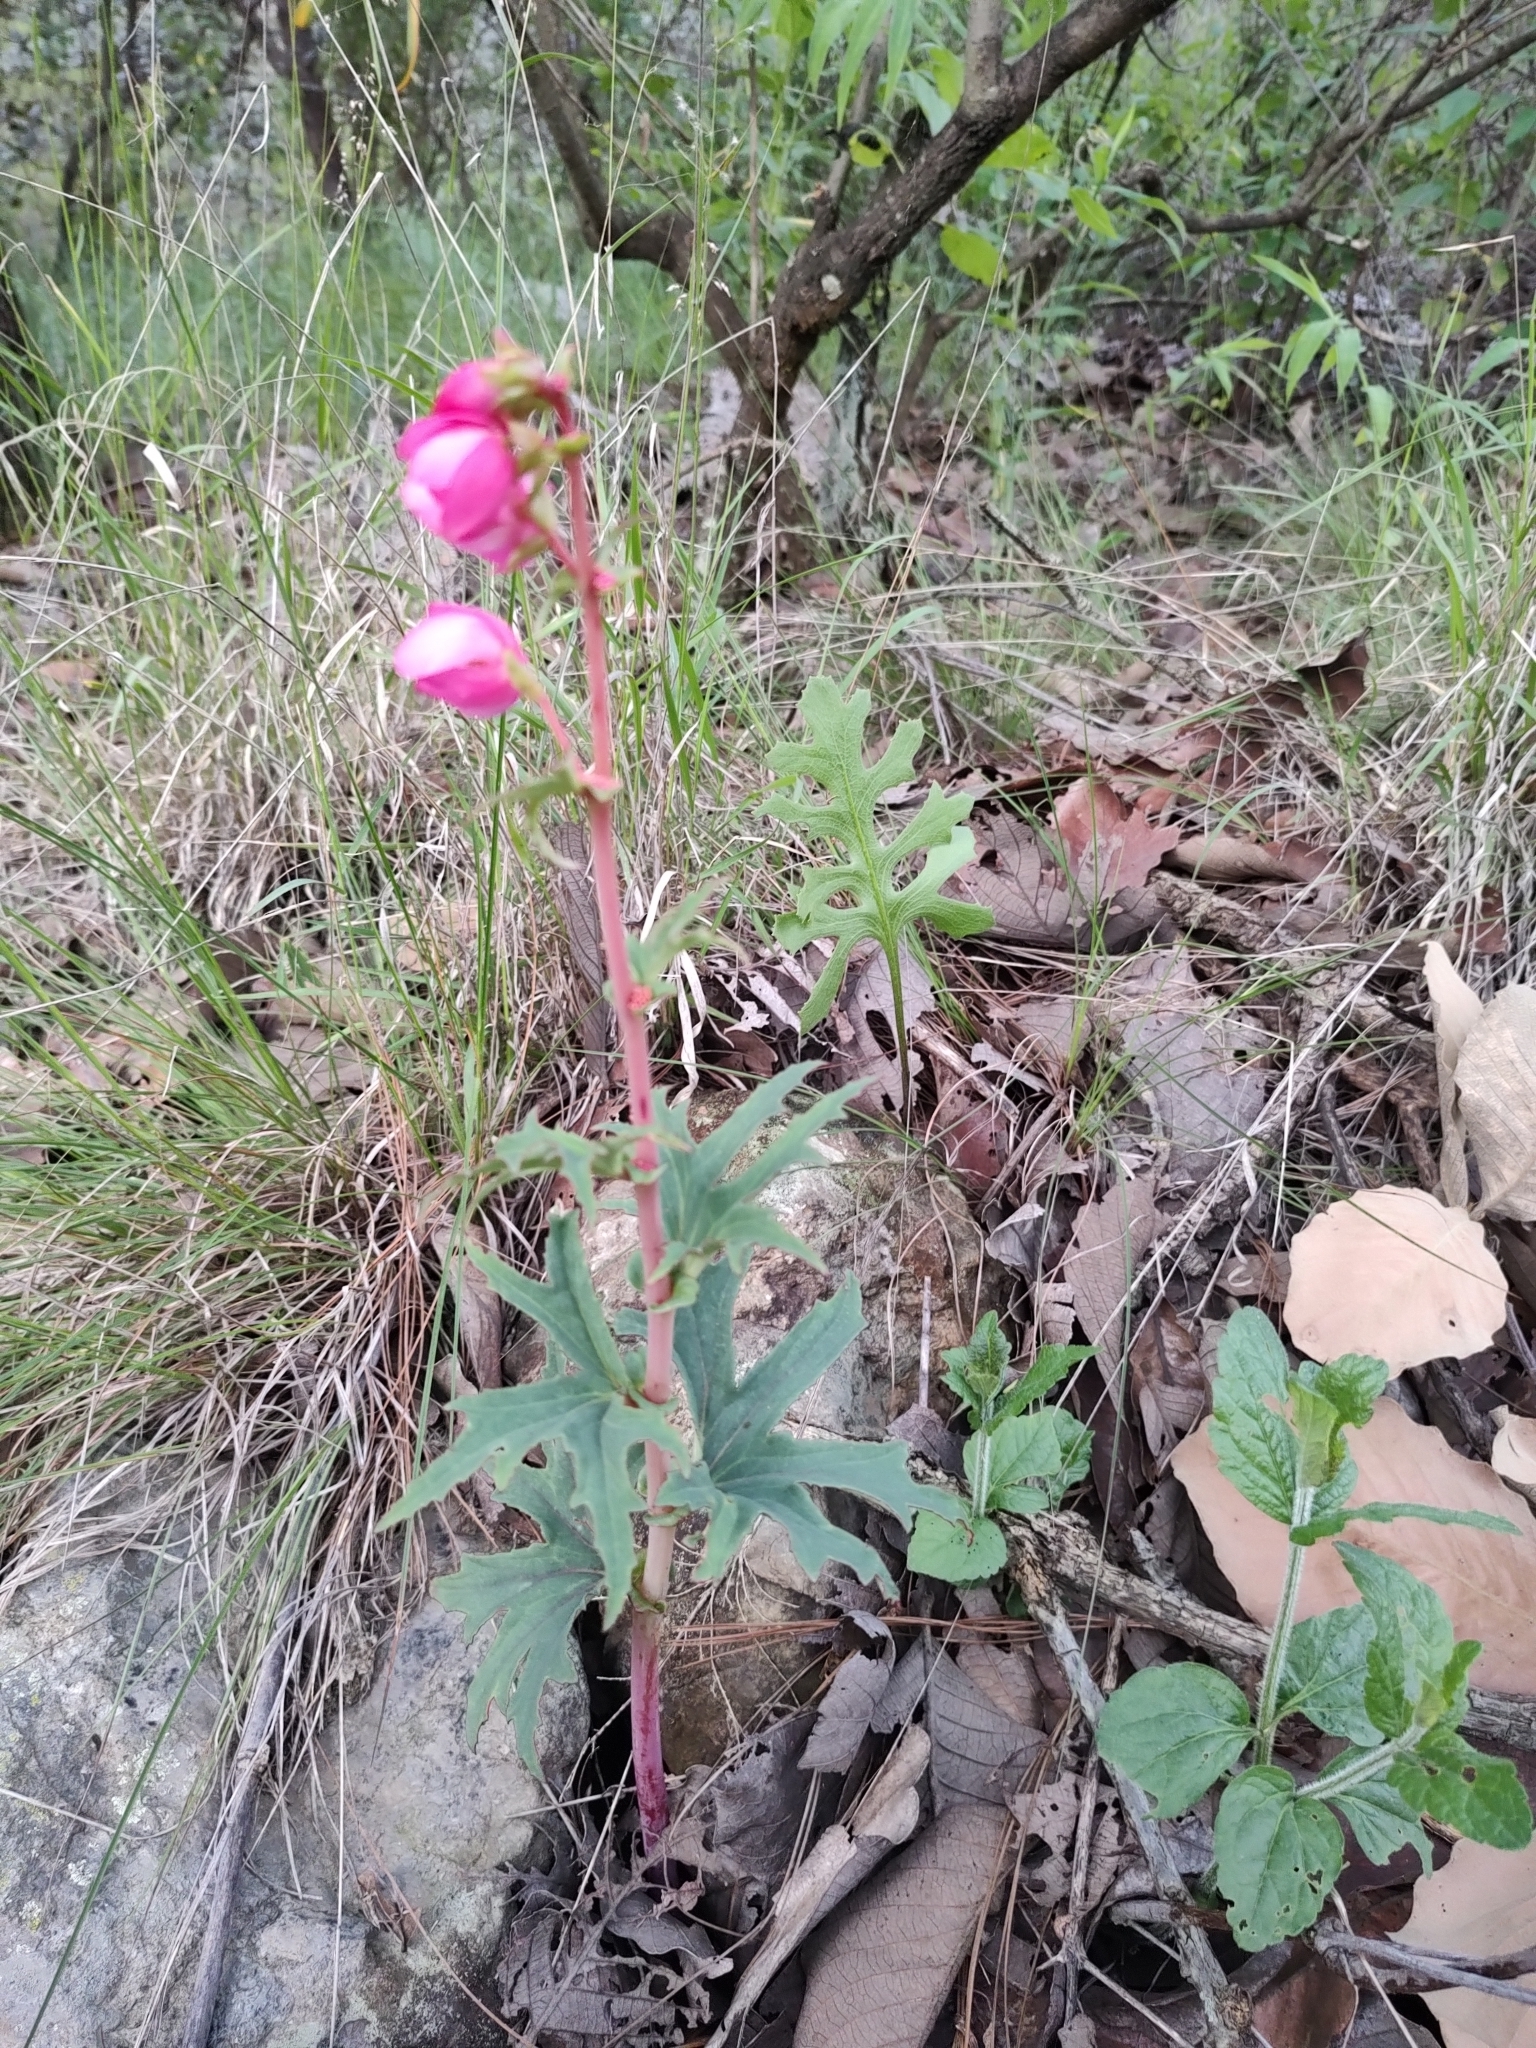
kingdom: Plantae
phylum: Tracheophyta
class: Magnoliopsida
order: Cucurbitales
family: Begoniaceae
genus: Begonia
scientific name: Begonia angustiloba
